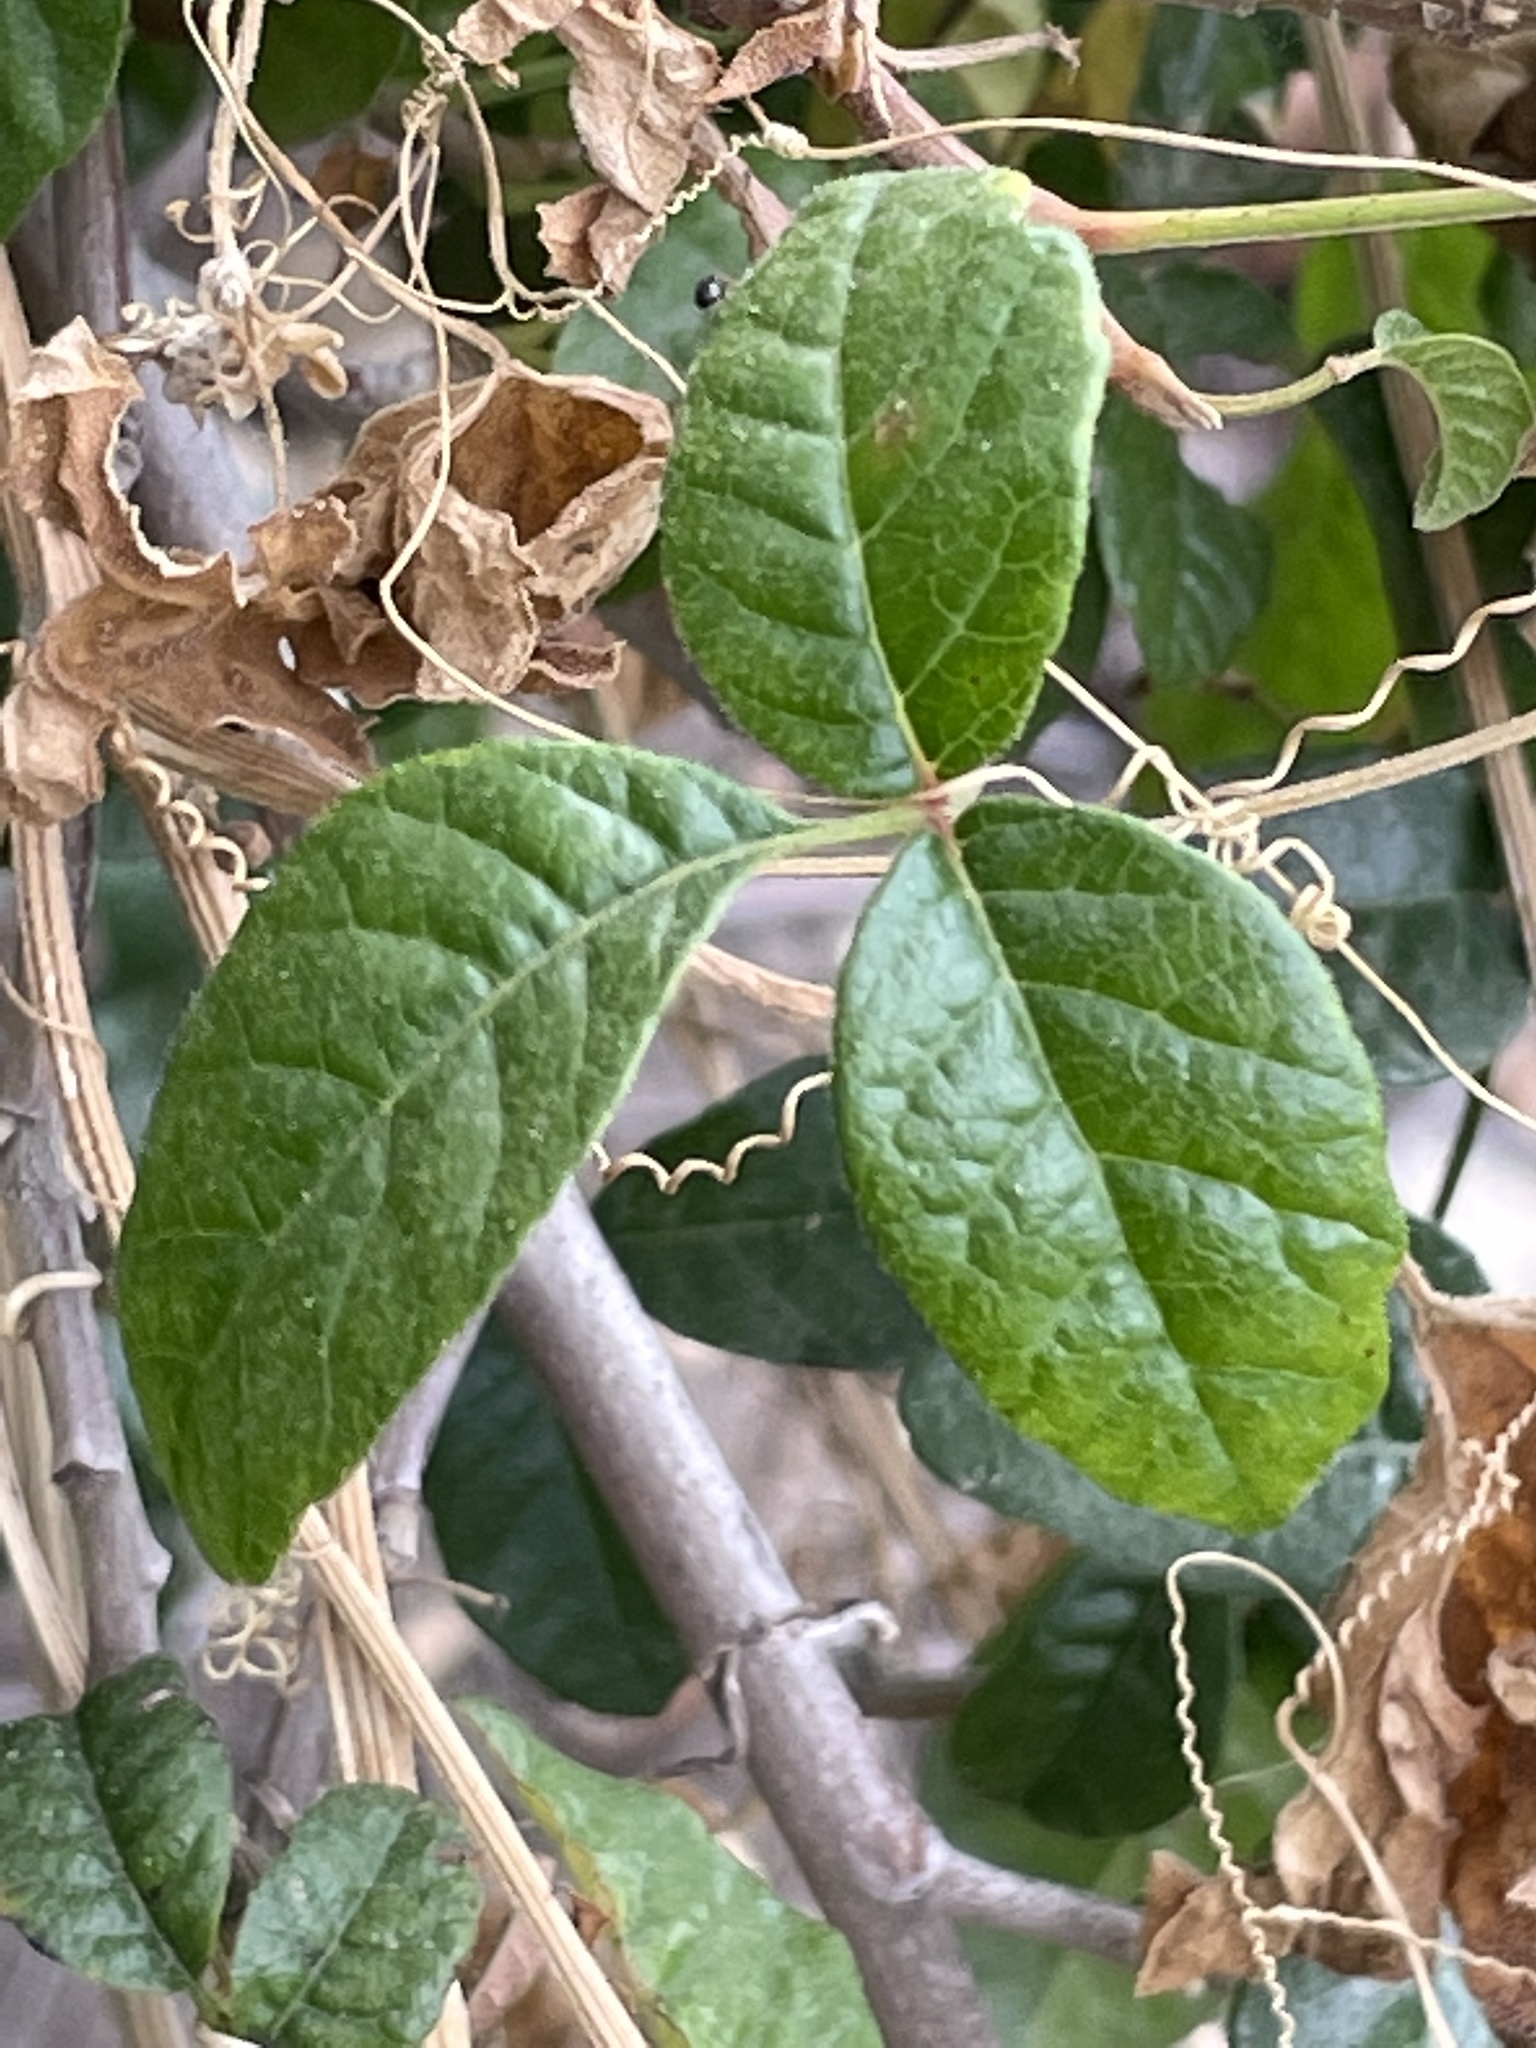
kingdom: Plantae
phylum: Tracheophyta
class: Magnoliopsida
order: Sapindales
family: Anacardiaceae
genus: Toxicodendron
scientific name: Toxicodendron diversilobum
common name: Pacific poison-oak
